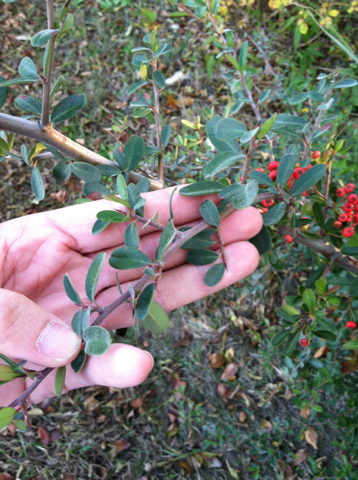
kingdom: Plantae
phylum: Tracheophyta
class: Magnoliopsida
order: Rosales
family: Rosaceae
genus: Pyracantha
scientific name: Pyracantha koidzumii
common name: Formosa firethorn
